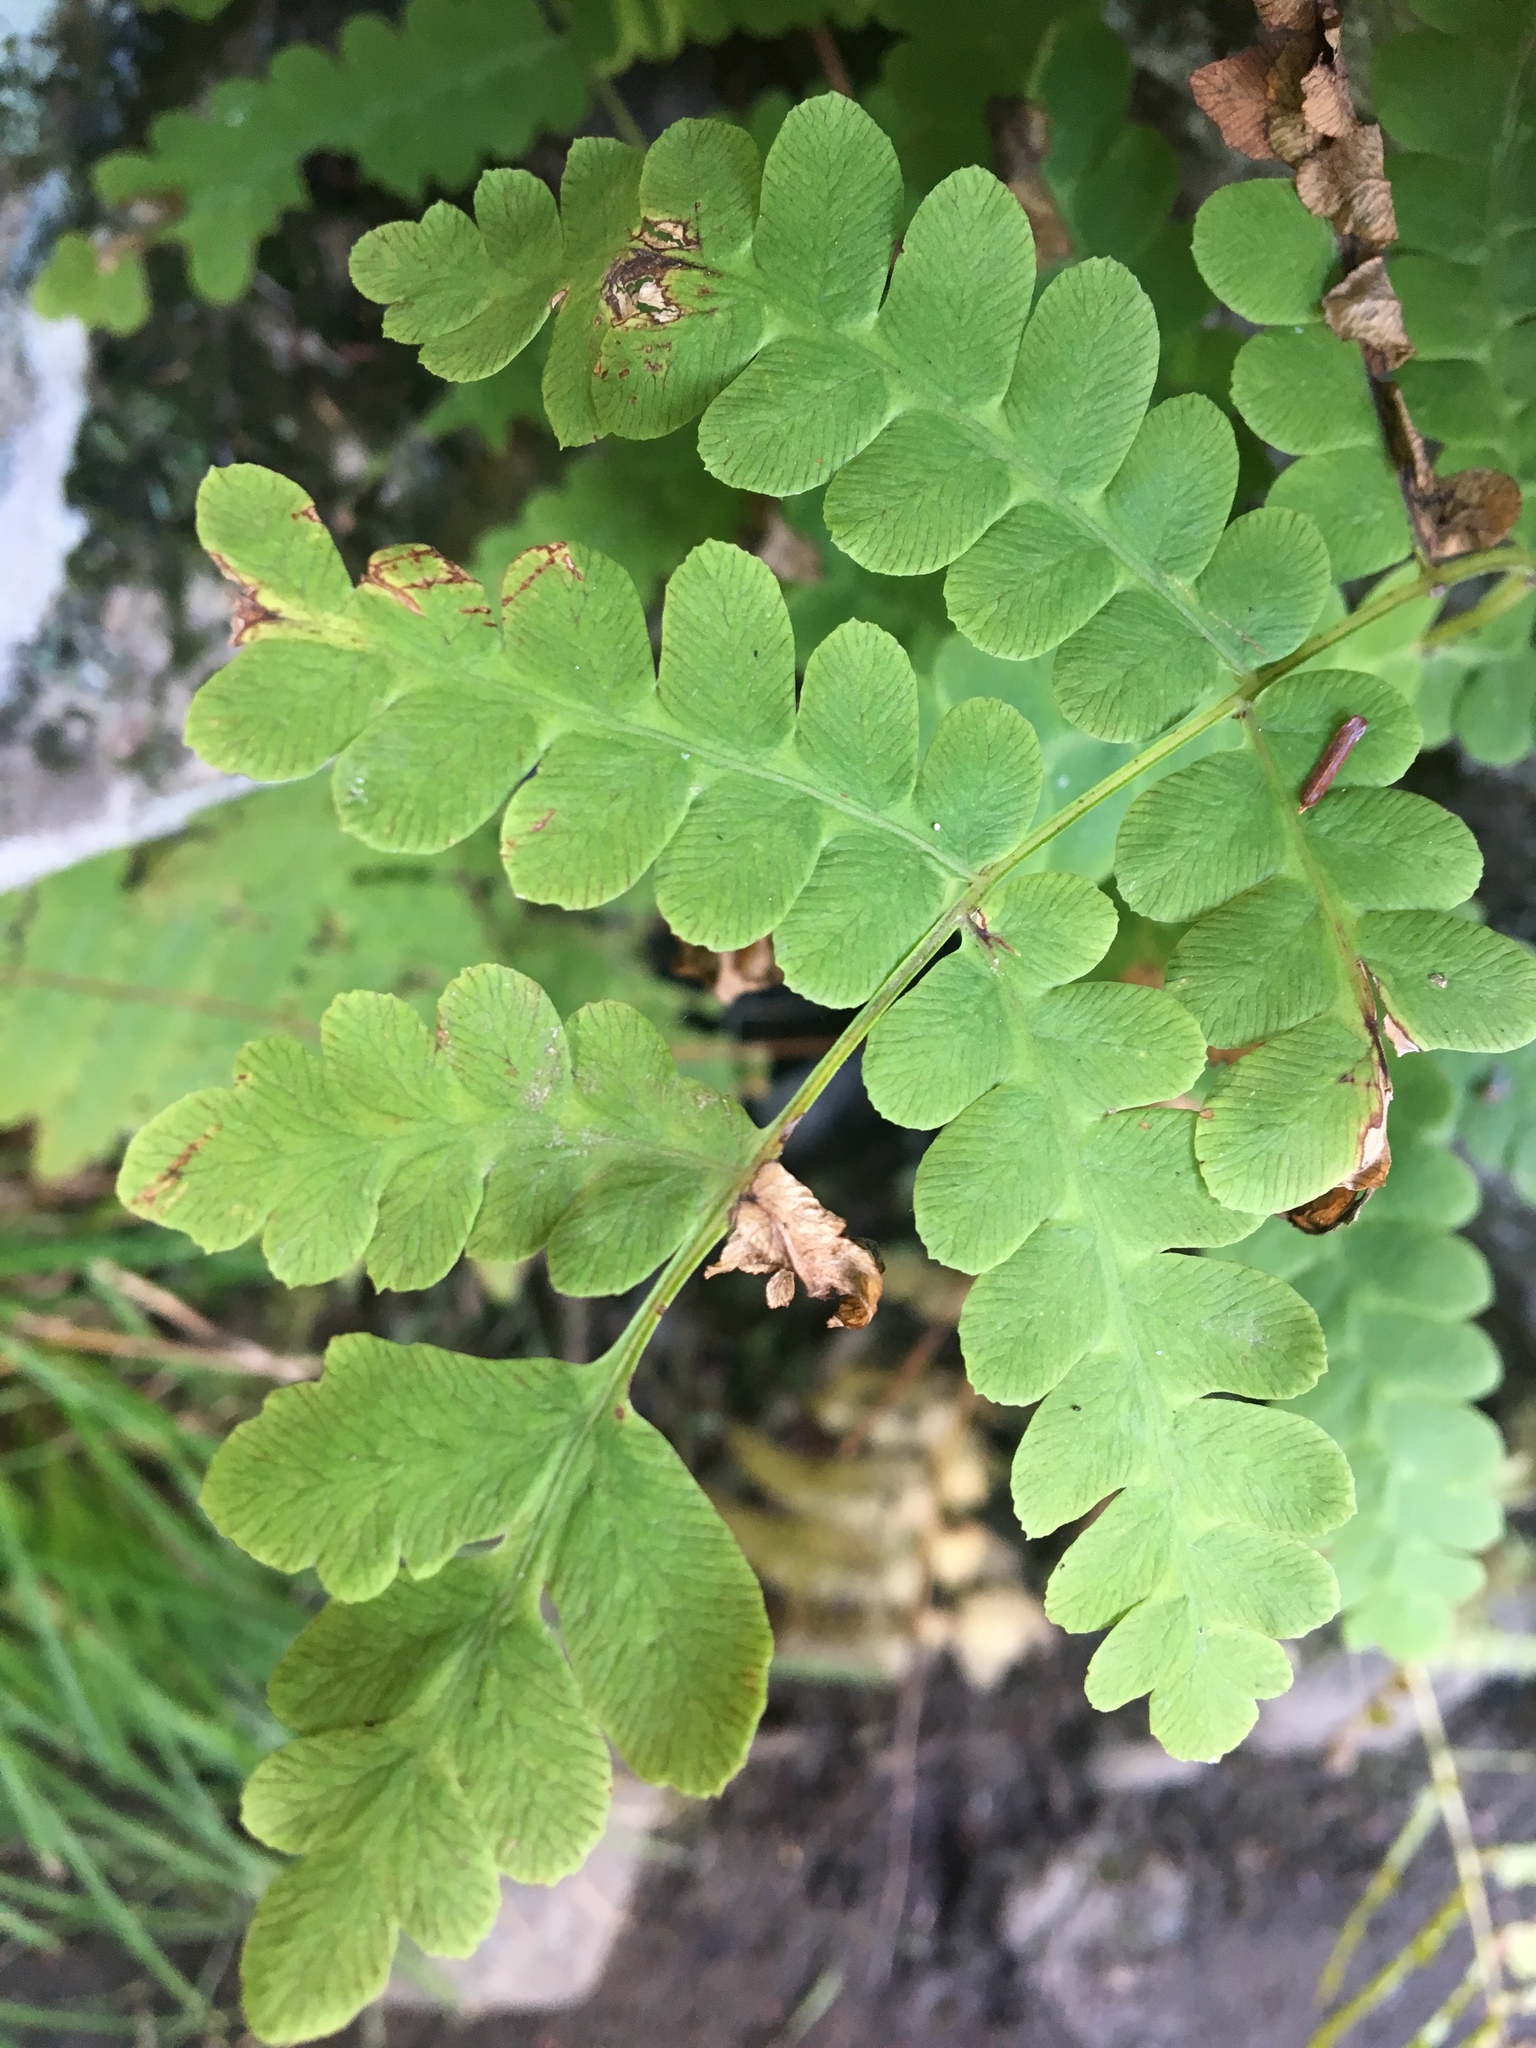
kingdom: Plantae
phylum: Tracheophyta
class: Polypodiopsida
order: Osmundales
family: Osmundaceae
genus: Claytosmunda
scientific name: Claytosmunda claytoniana
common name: Clayton's fern
